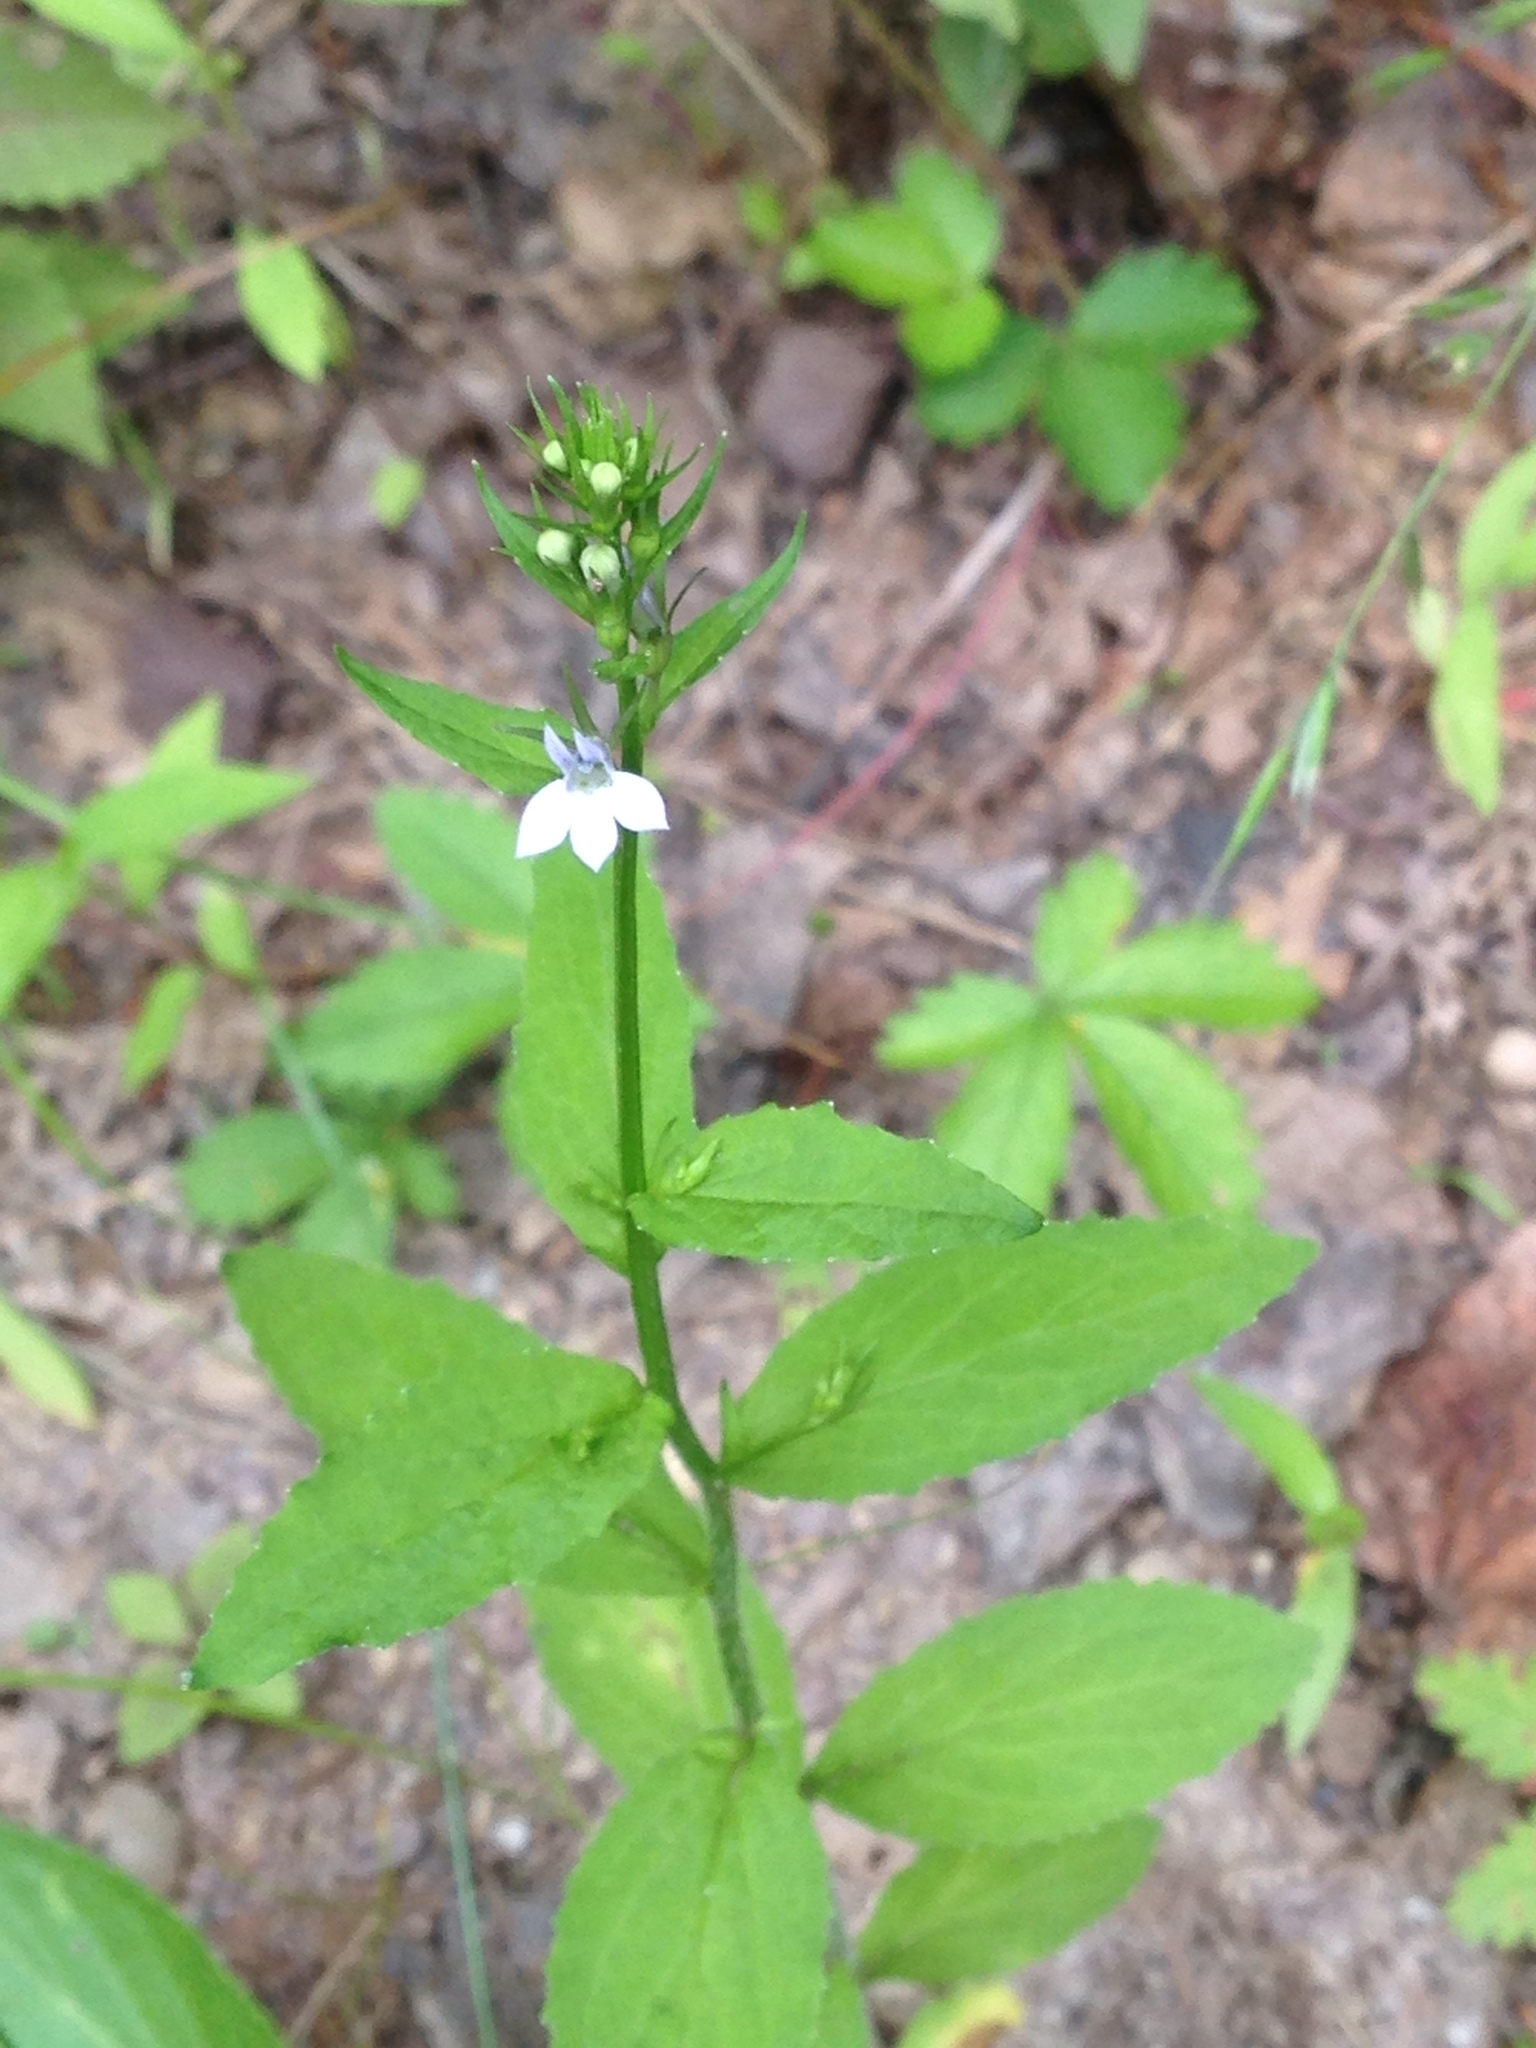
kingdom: Plantae
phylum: Tracheophyta
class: Magnoliopsida
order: Asterales
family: Campanulaceae
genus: Lobelia
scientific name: Lobelia inflata
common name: Indian tobacco
